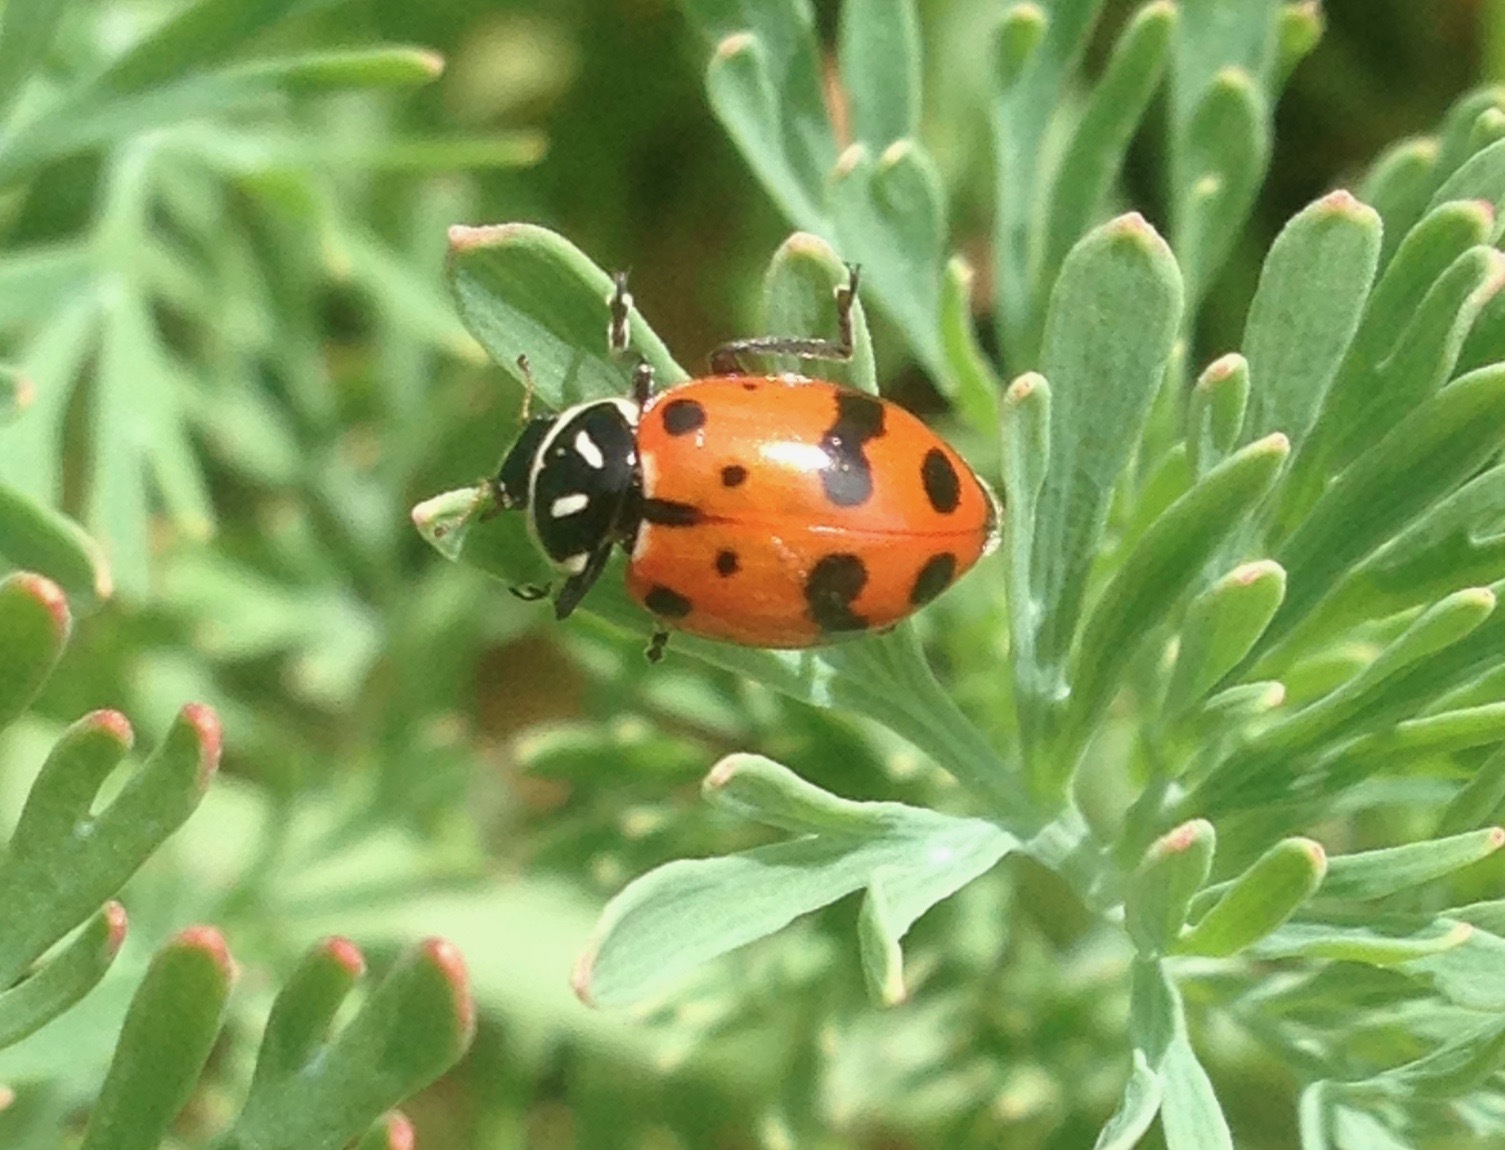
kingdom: Animalia
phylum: Arthropoda
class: Insecta
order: Coleoptera
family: Coccinellidae
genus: Hippodamia
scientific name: Hippodamia convergens
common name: Convergent lady beetle
